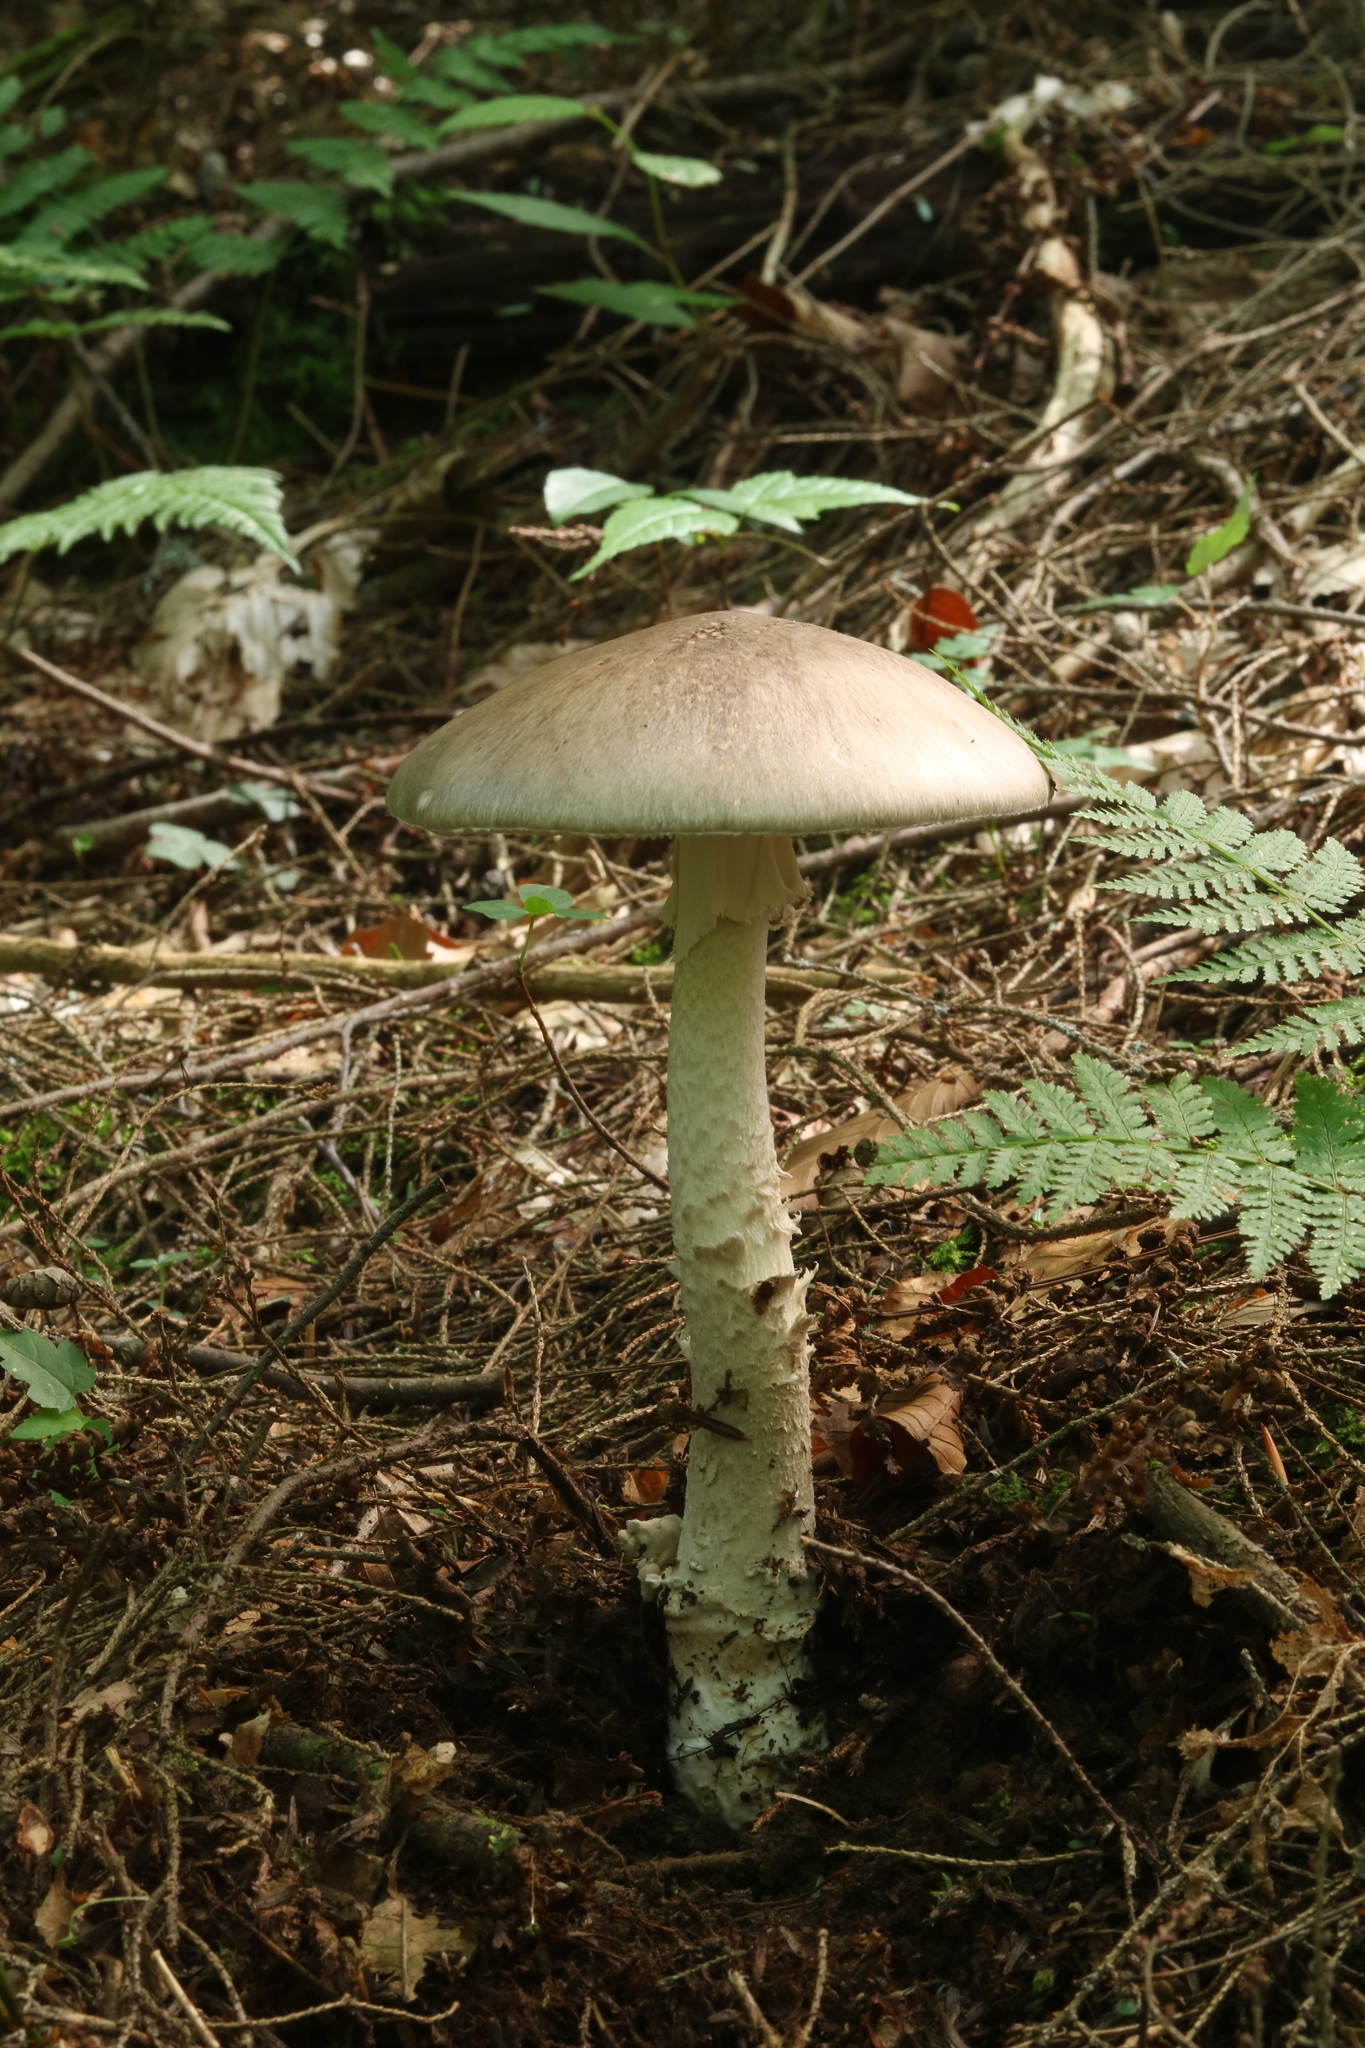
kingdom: Fungi
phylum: Basidiomycota
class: Agaricomycetes
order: Agaricales
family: Amanitaceae
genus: Amanita
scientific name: Amanita submaculata
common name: Ball gown amanita
